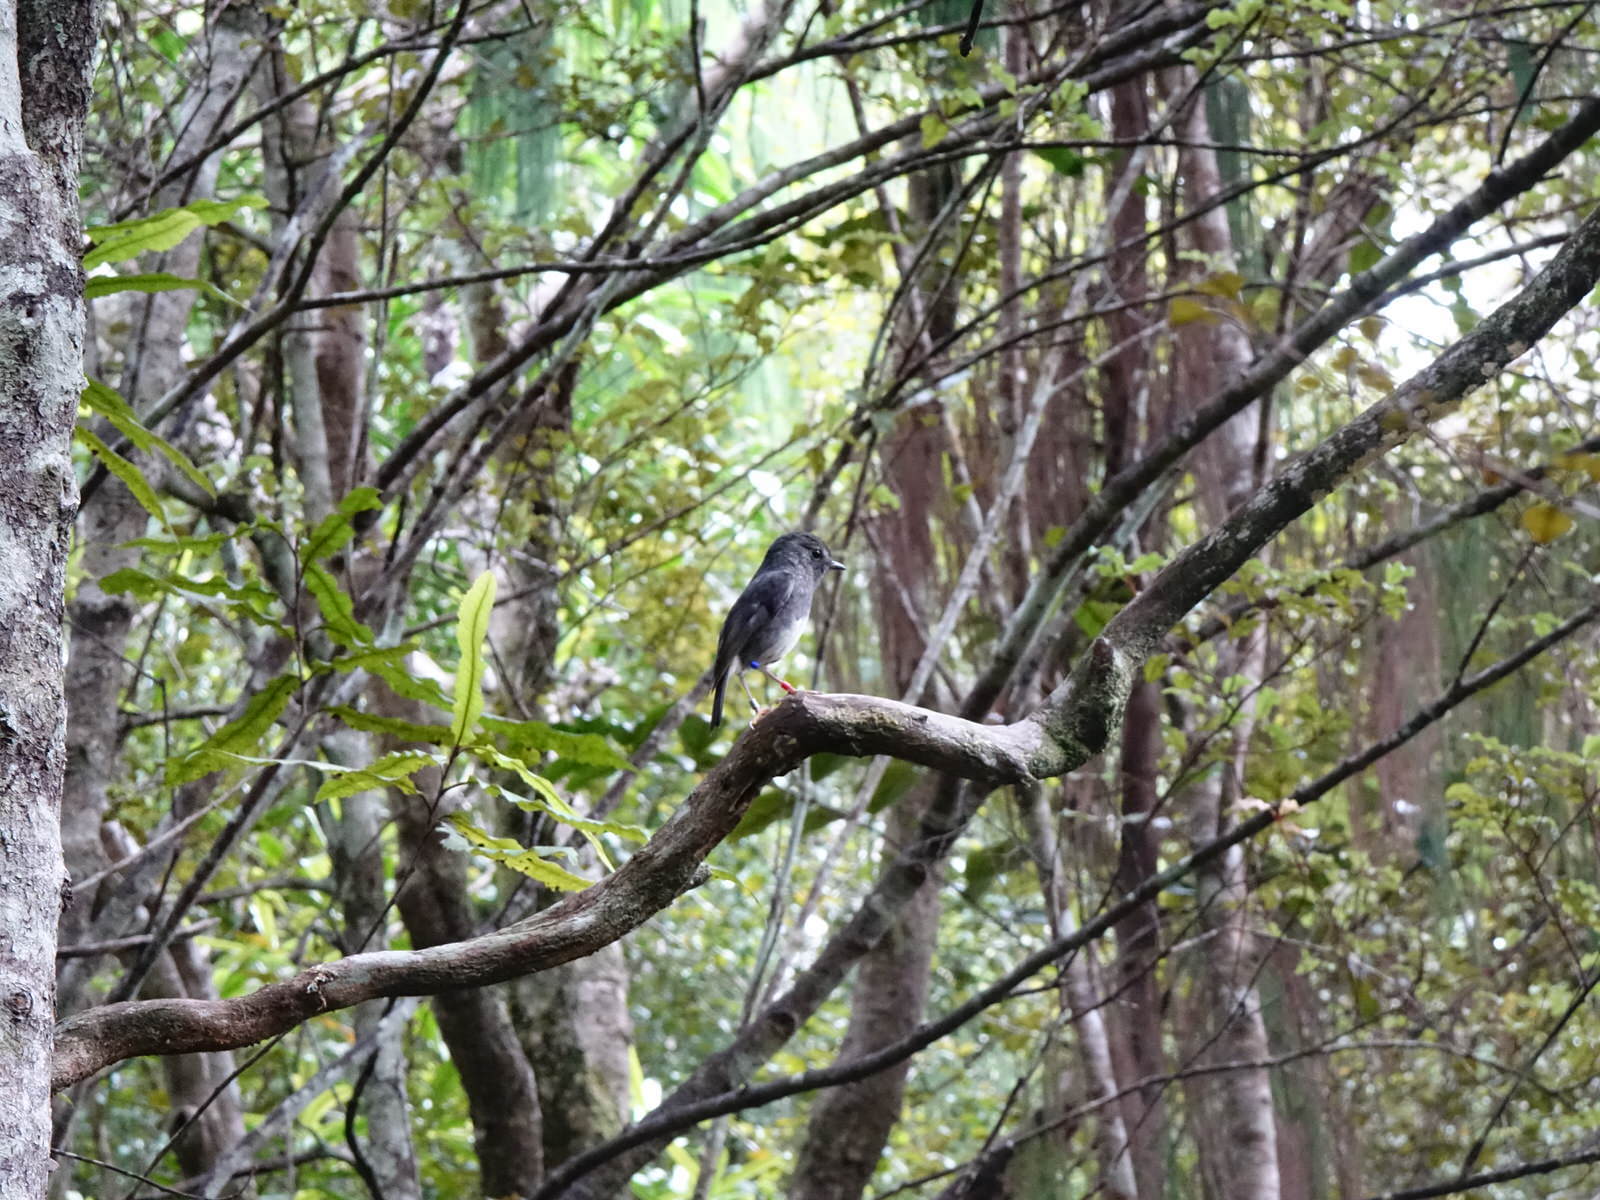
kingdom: Animalia
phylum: Chordata
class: Aves
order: Passeriformes
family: Petroicidae
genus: Petroica
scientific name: Petroica australis
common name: New zealand robin
